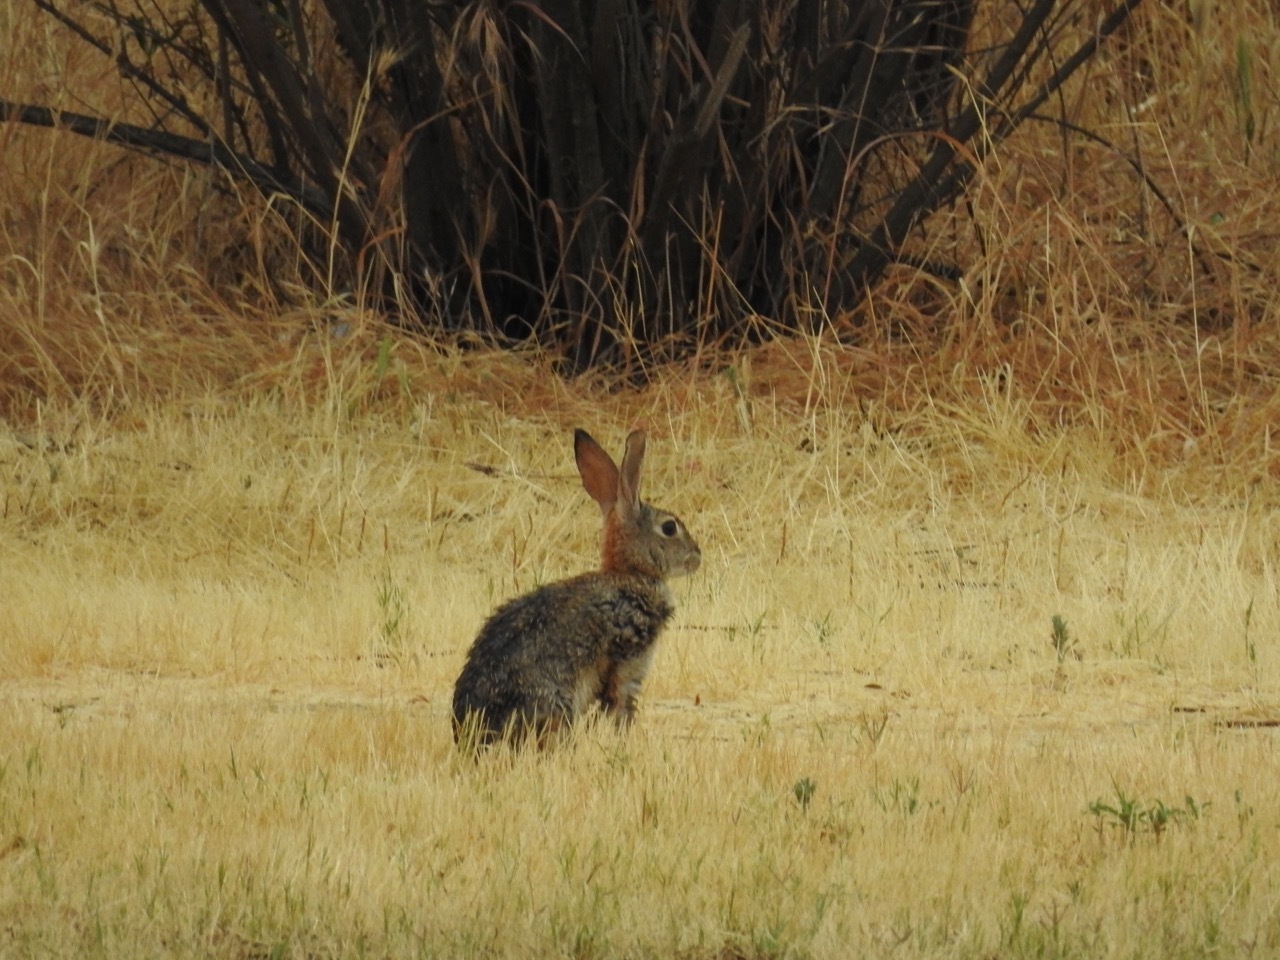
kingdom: Animalia
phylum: Chordata
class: Mammalia
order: Lagomorpha
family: Leporidae
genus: Sylvilagus
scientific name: Sylvilagus audubonii
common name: Desert cottontail
